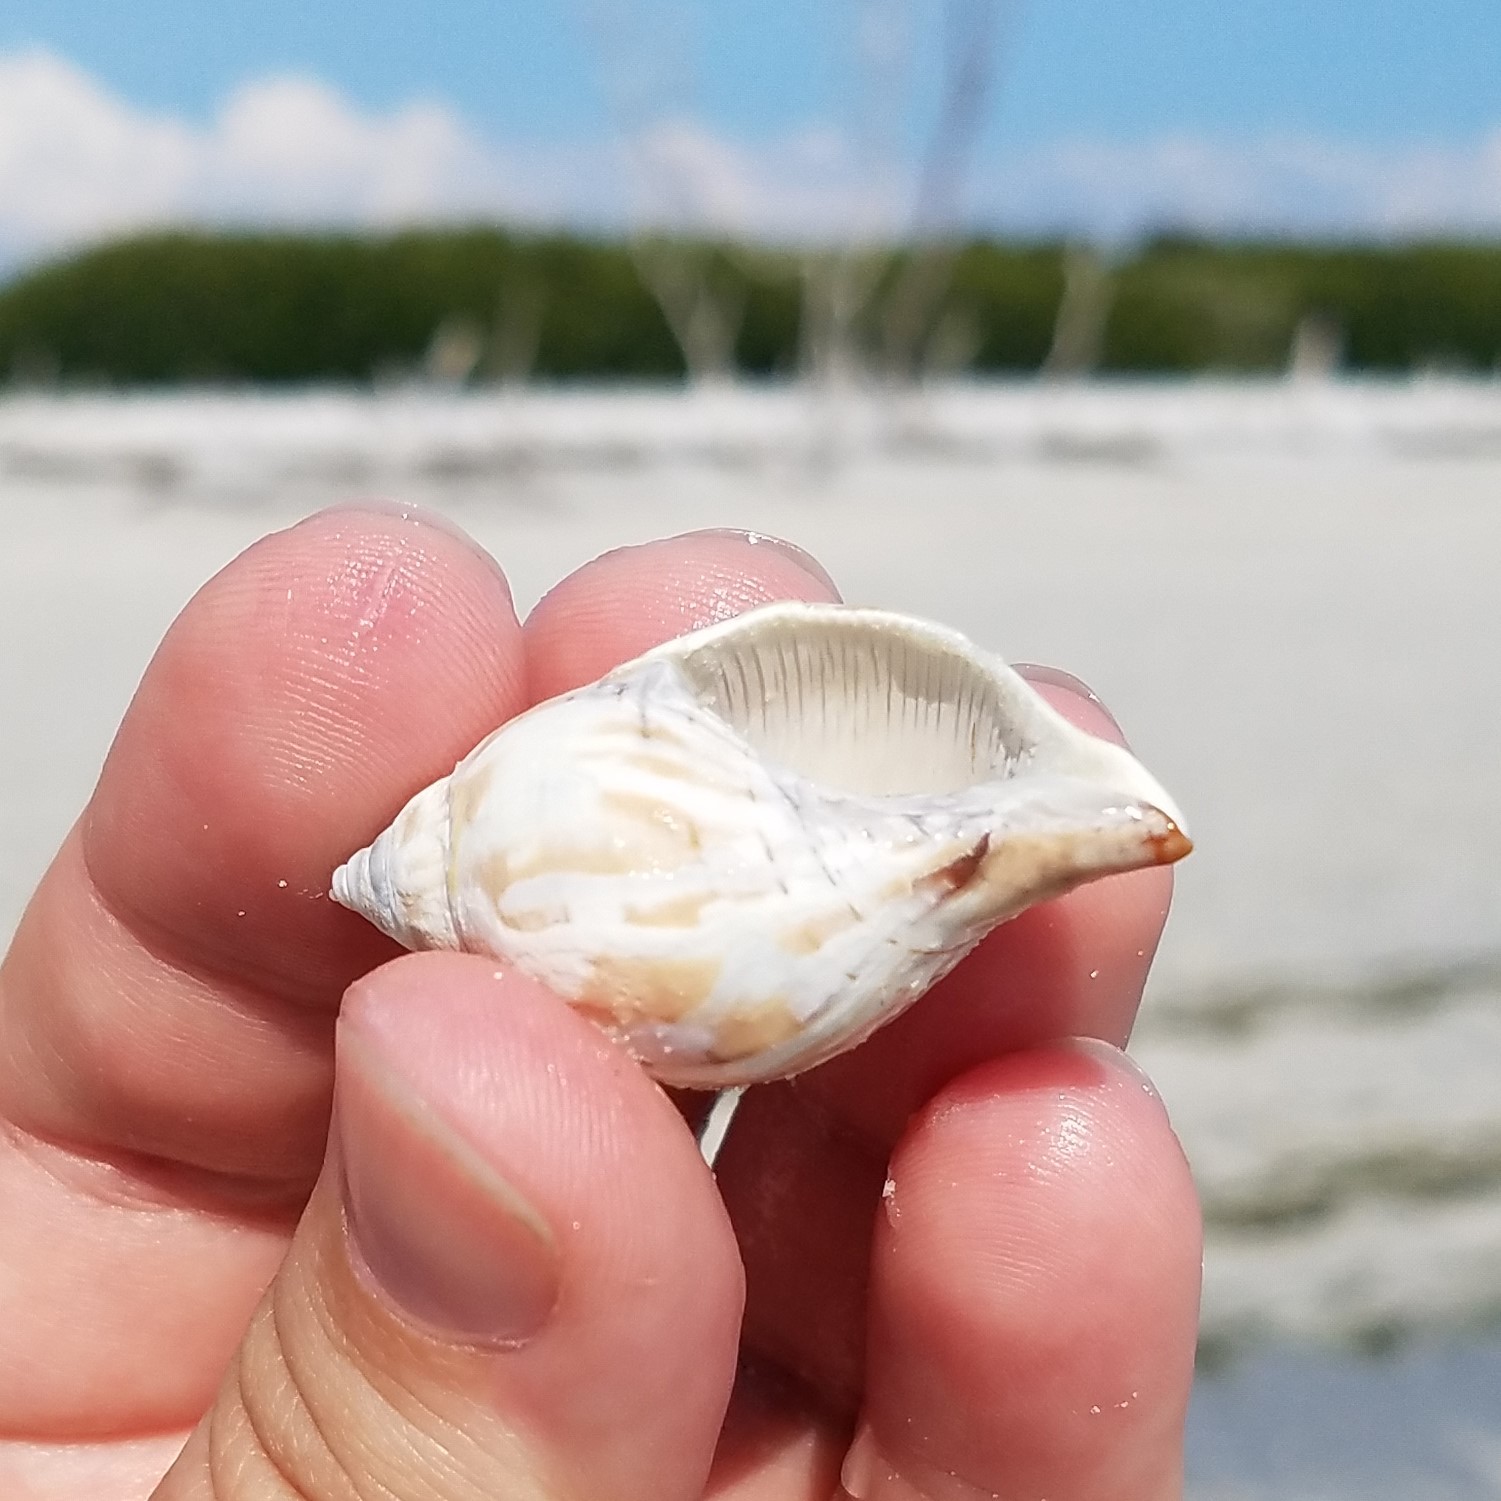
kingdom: Animalia
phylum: Mollusca
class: Gastropoda
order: Neogastropoda
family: Fasciolariidae
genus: Cinctura
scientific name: Cinctura hunteria
